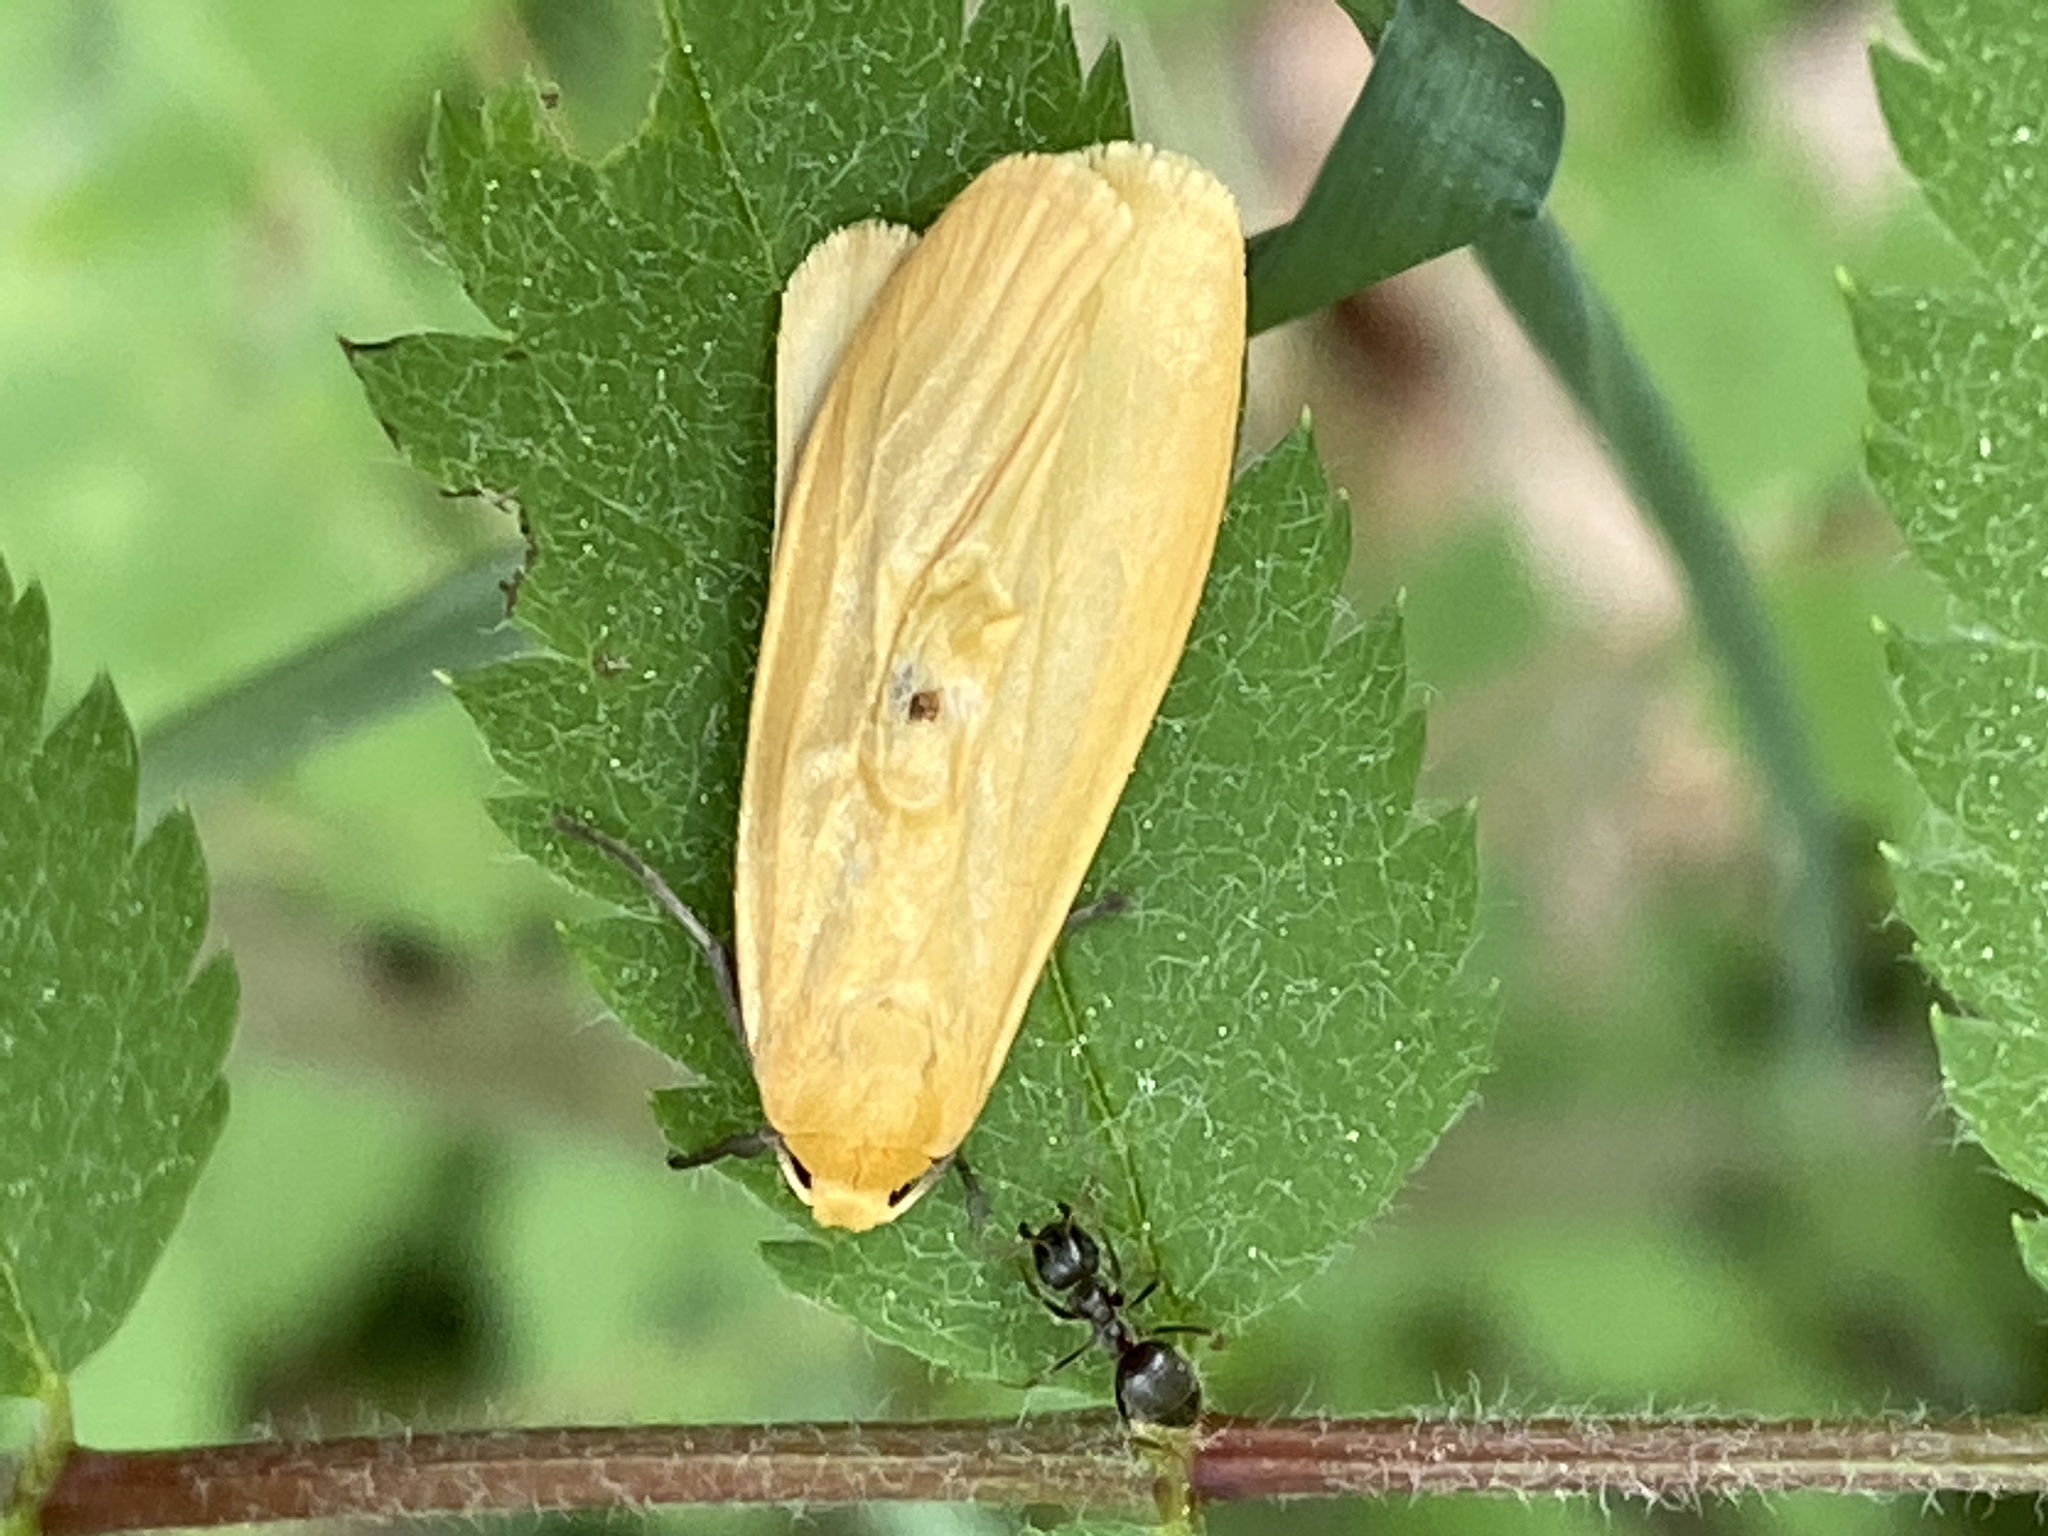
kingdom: Animalia
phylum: Arthropoda
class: Insecta
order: Lepidoptera
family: Erebidae
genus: Wittia
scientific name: Wittia sororcula
